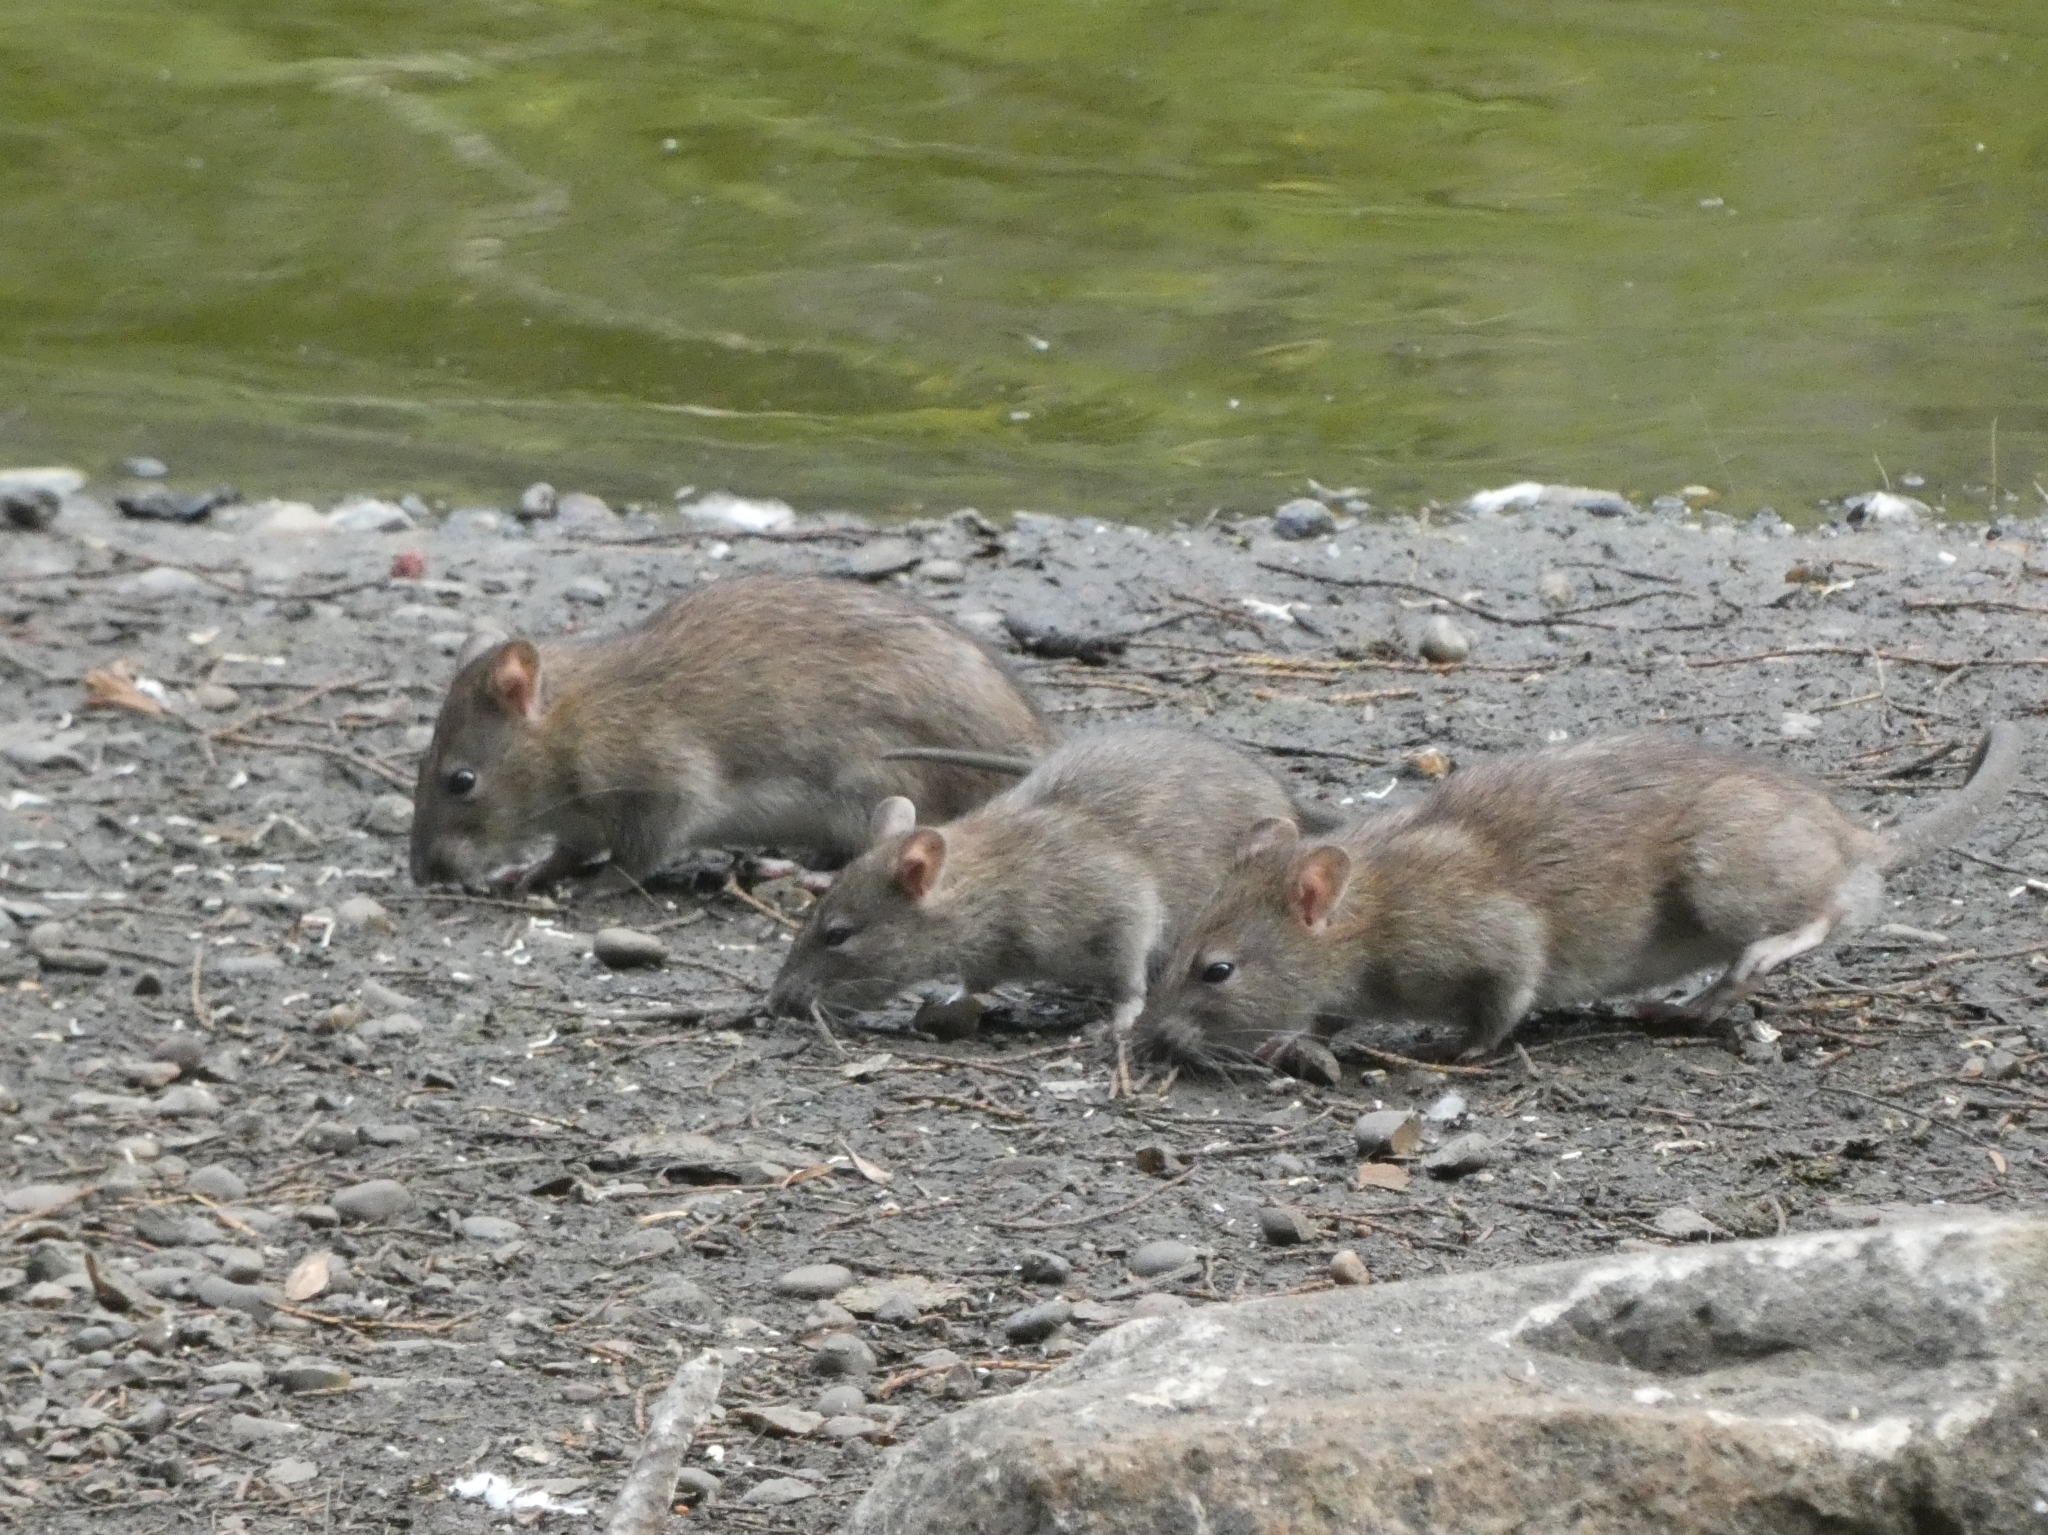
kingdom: Animalia
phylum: Chordata
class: Mammalia
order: Rodentia
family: Muridae
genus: Rattus
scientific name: Rattus norvegicus
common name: Brown rat
